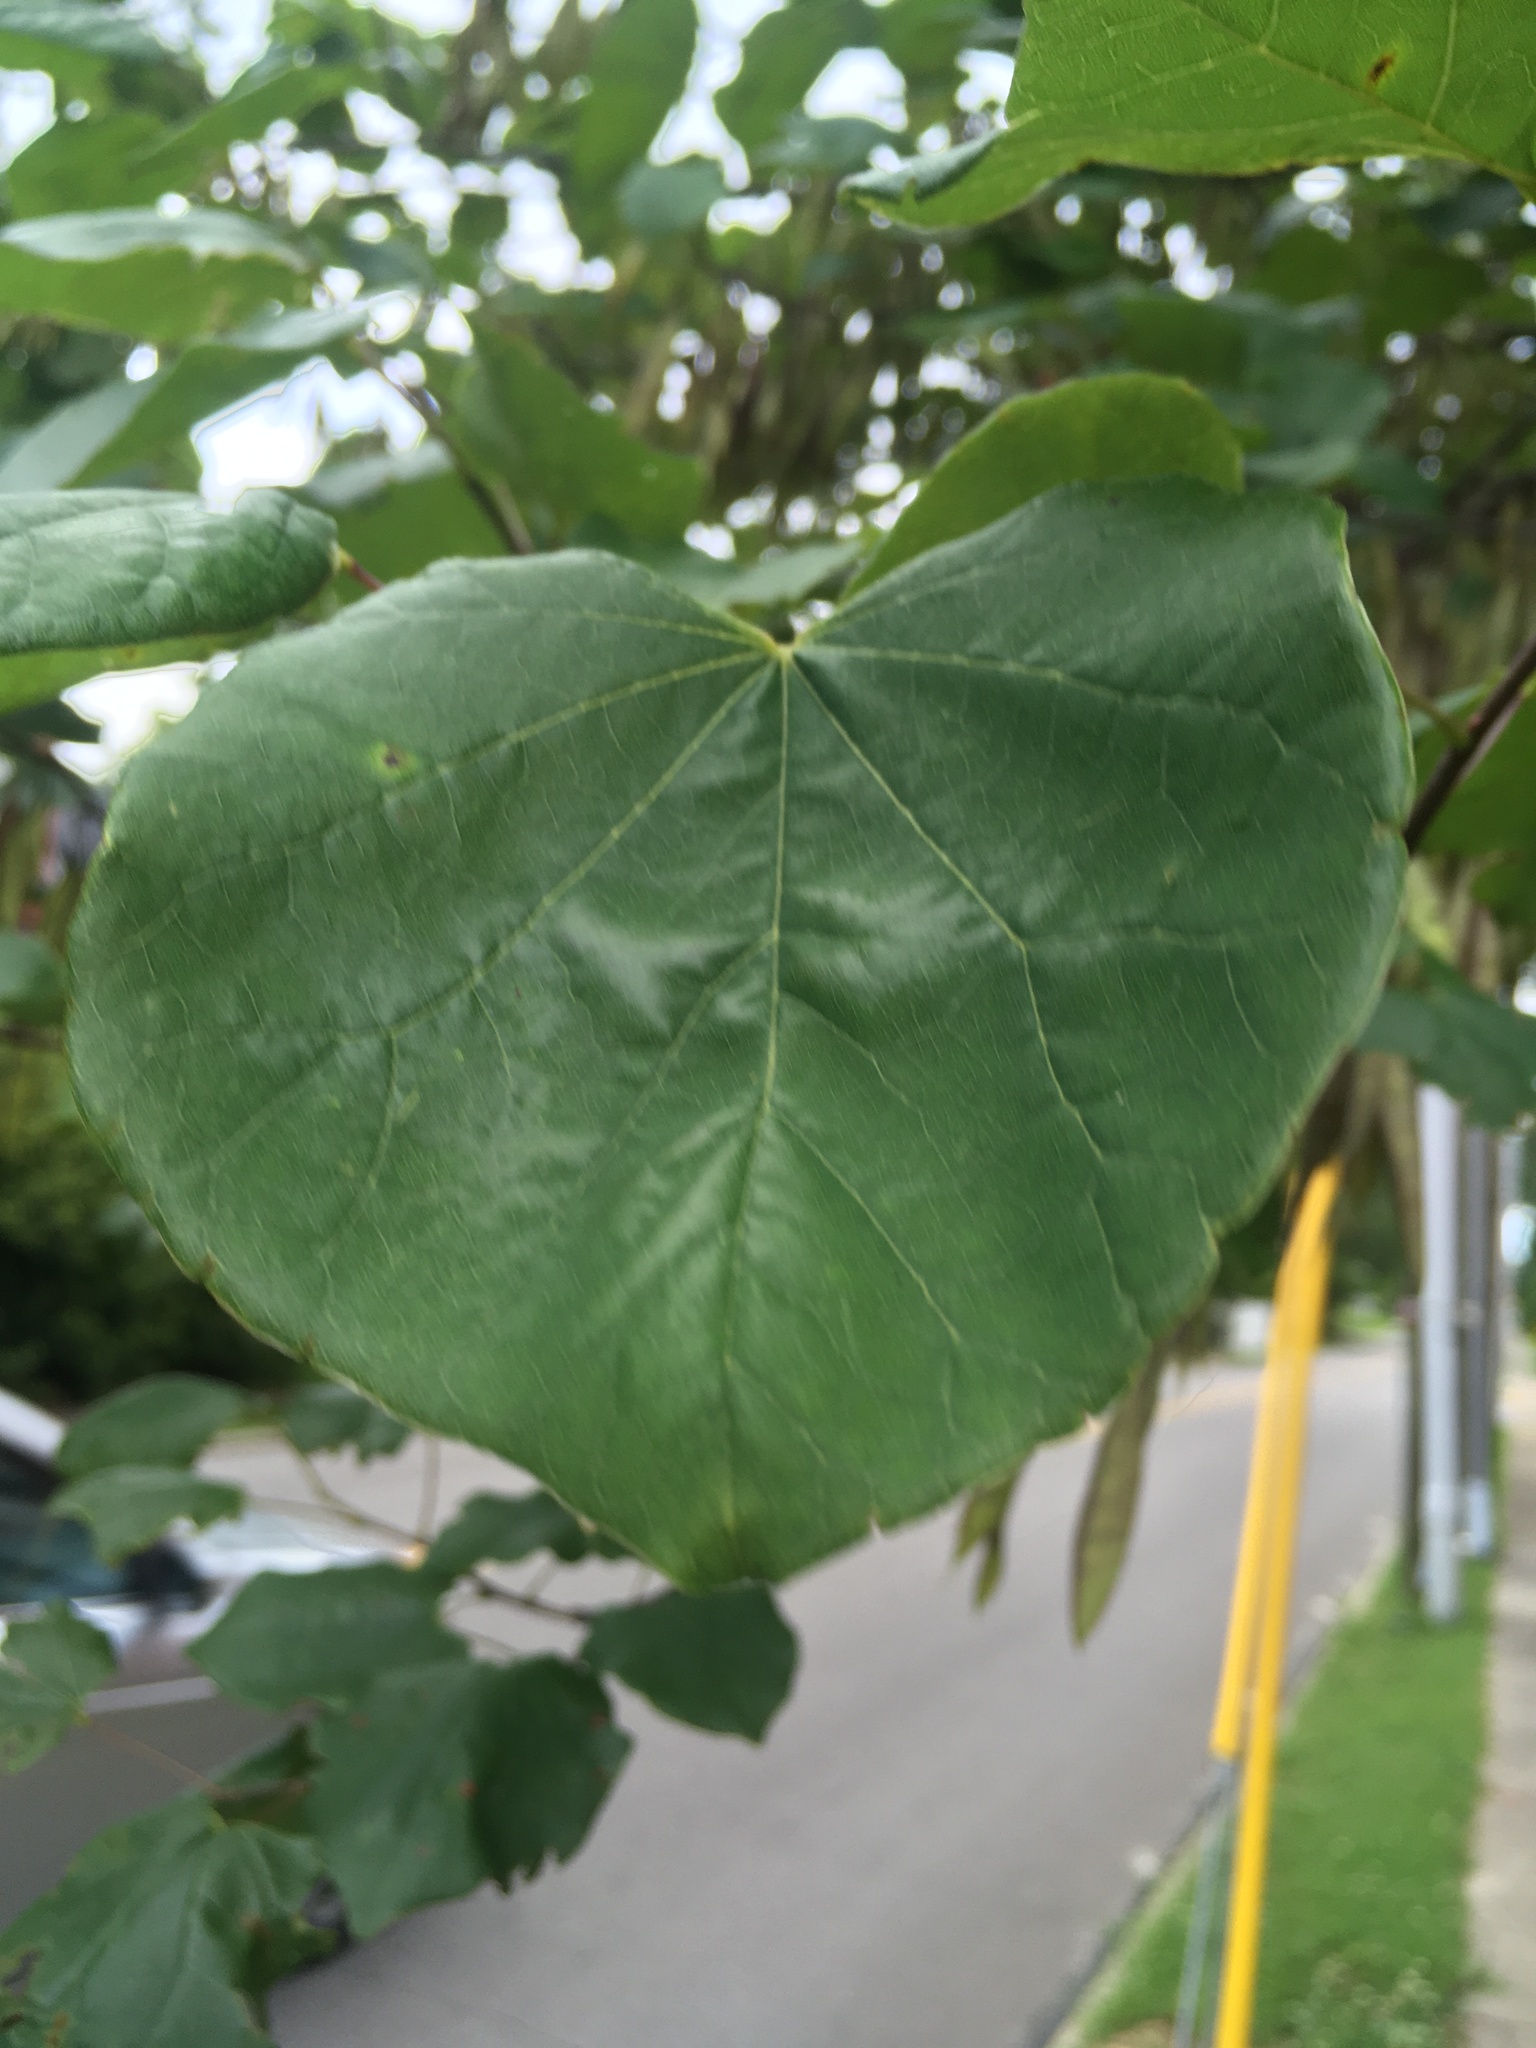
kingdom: Plantae
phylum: Tracheophyta
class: Magnoliopsida
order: Fabales
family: Fabaceae
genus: Cercis
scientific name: Cercis canadensis
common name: Eastern redbud
